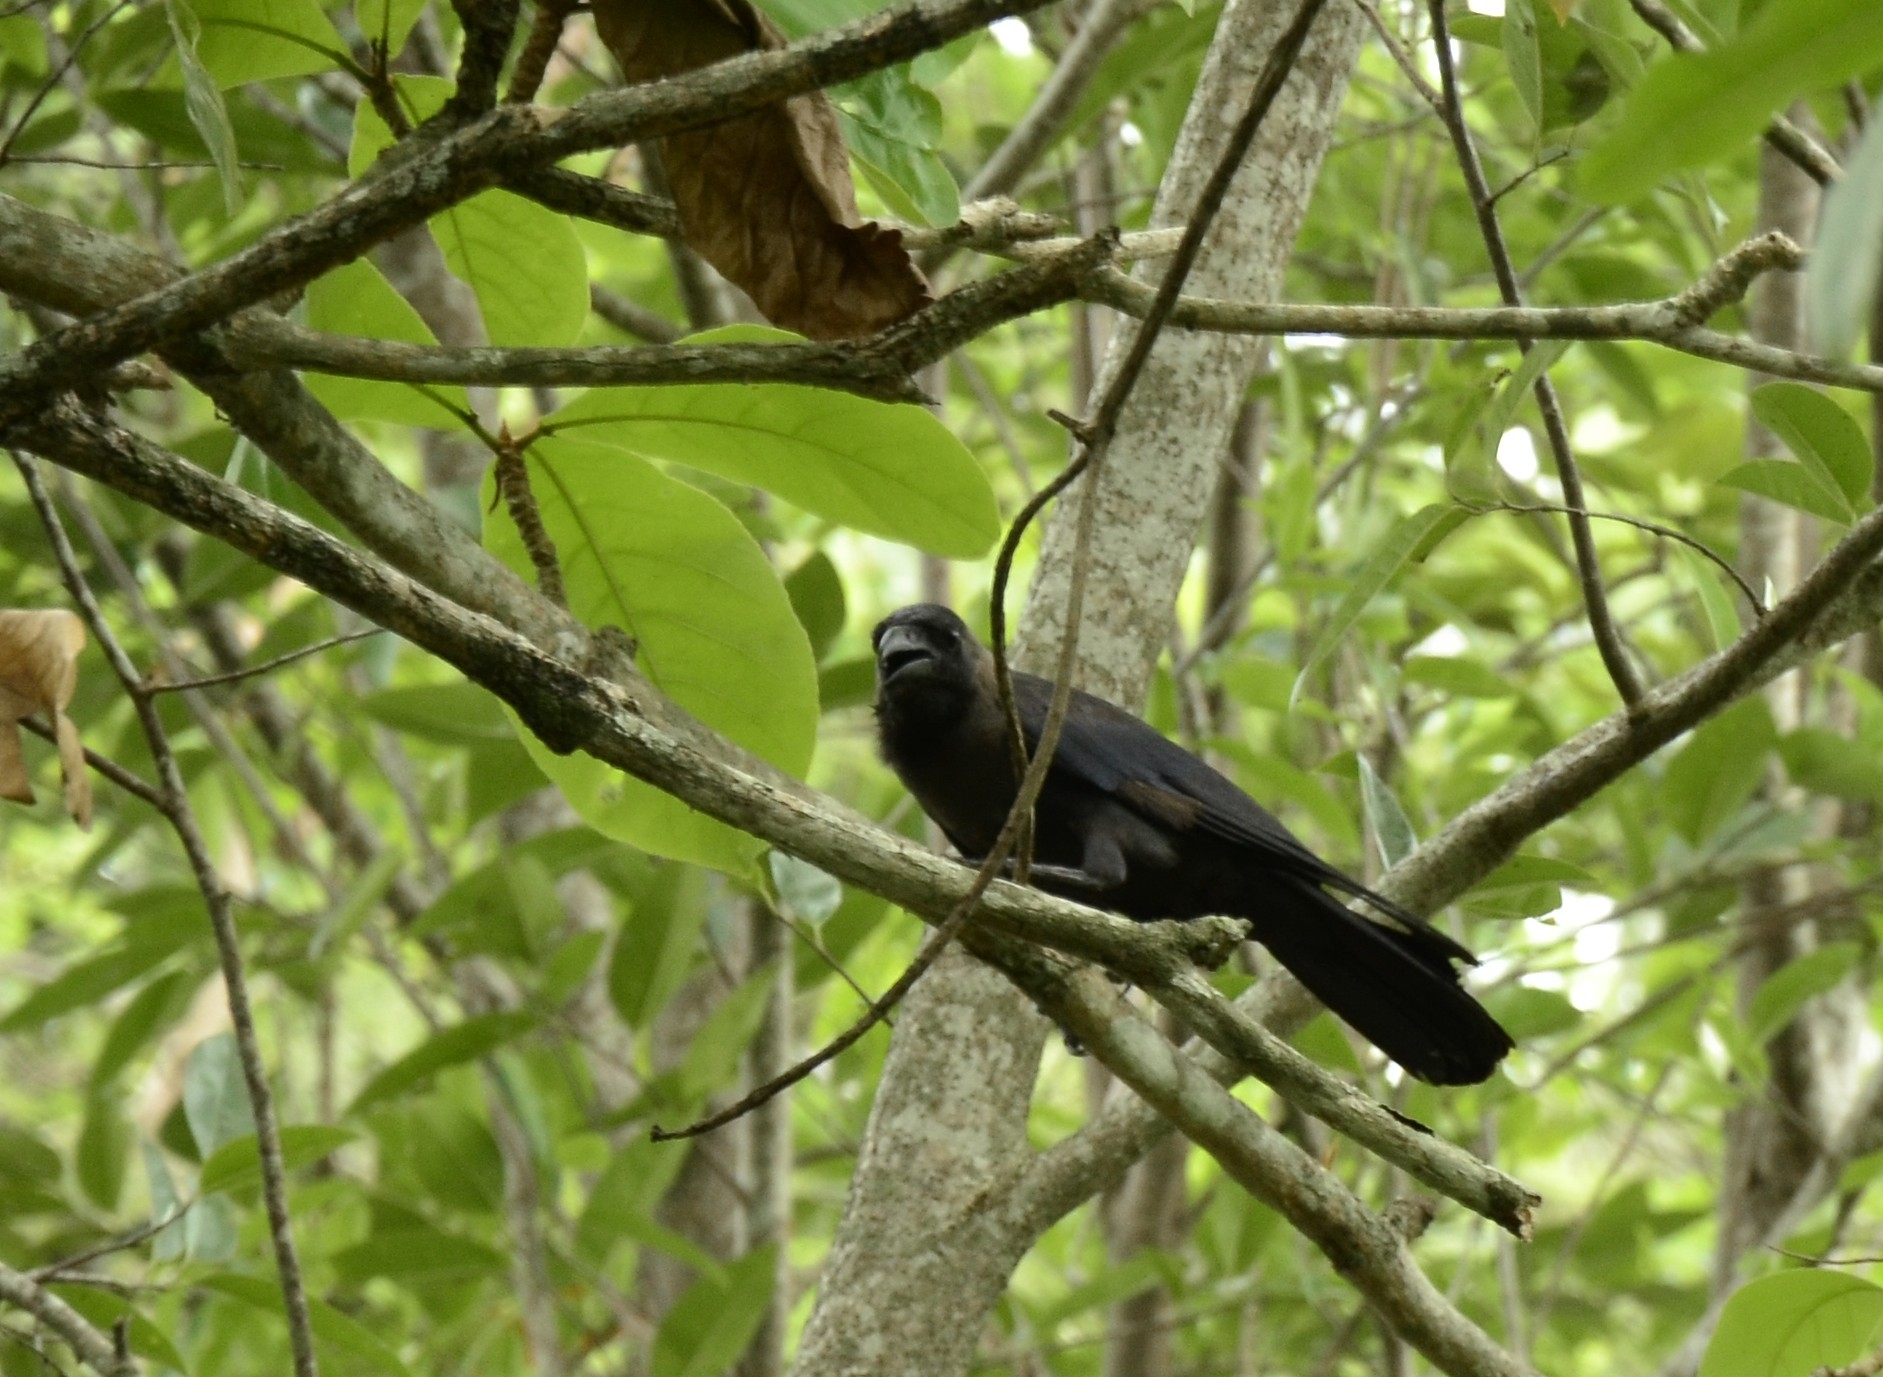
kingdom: Animalia
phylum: Chordata
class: Aves
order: Passeriformes
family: Corvidae
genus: Corvus
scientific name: Corvus splendens
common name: House crow
